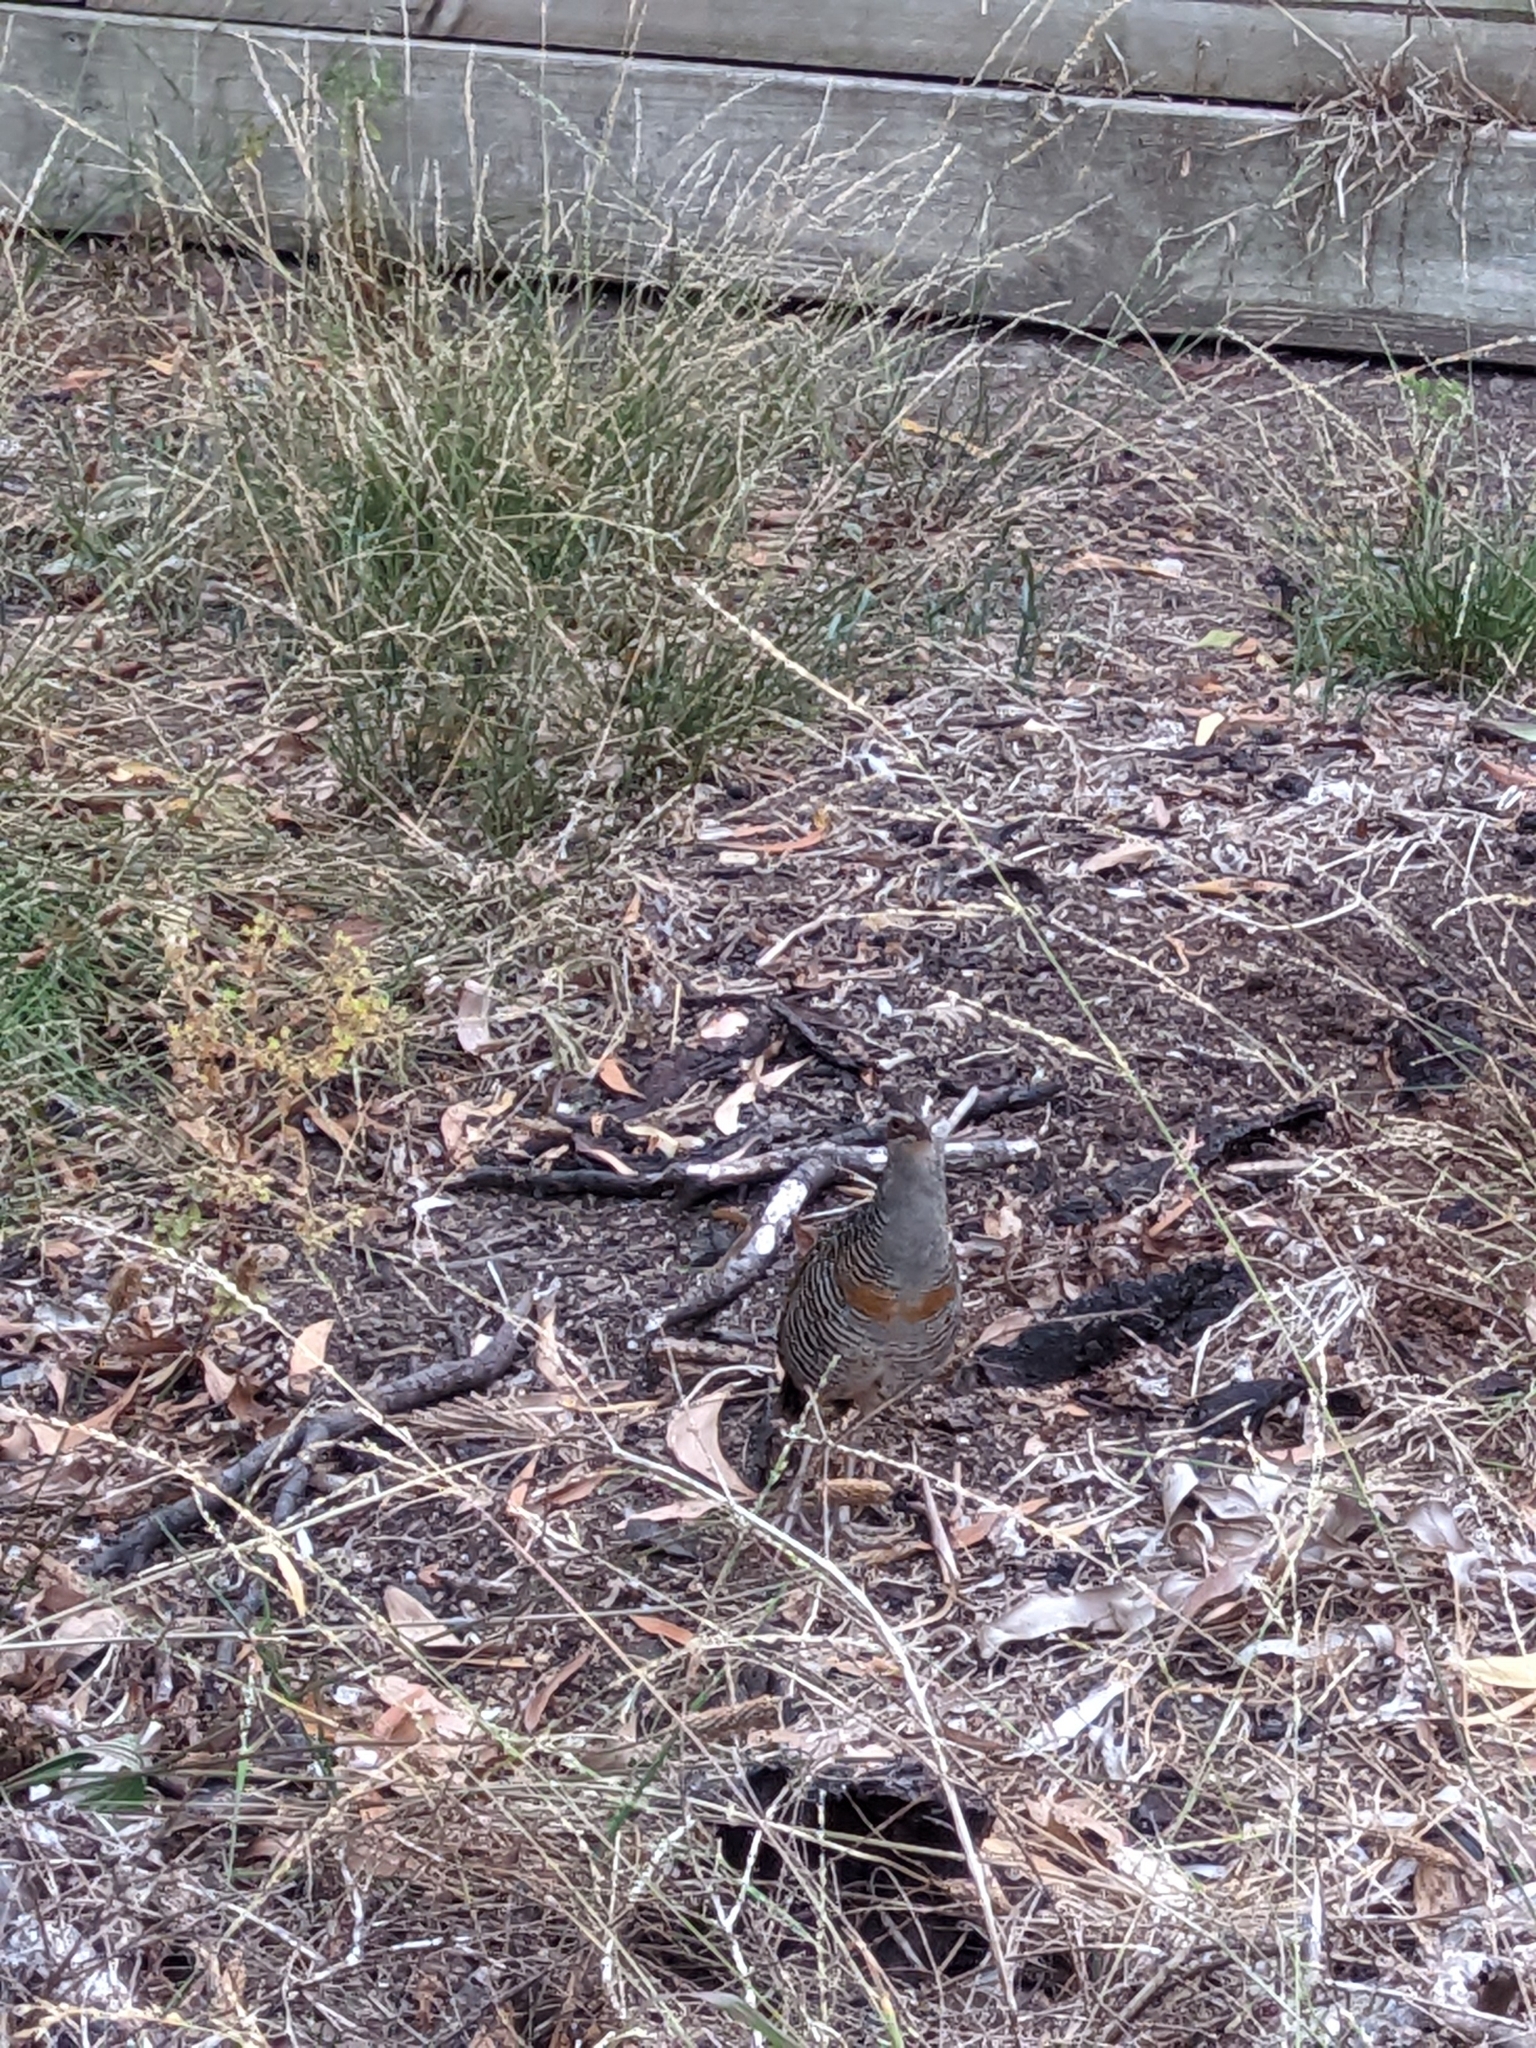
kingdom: Animalia
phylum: Chordata
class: Aves
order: Gruiformes
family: Rallidae
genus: Gallirallus
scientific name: Gallirallus philippensis
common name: Buff-banded rail
